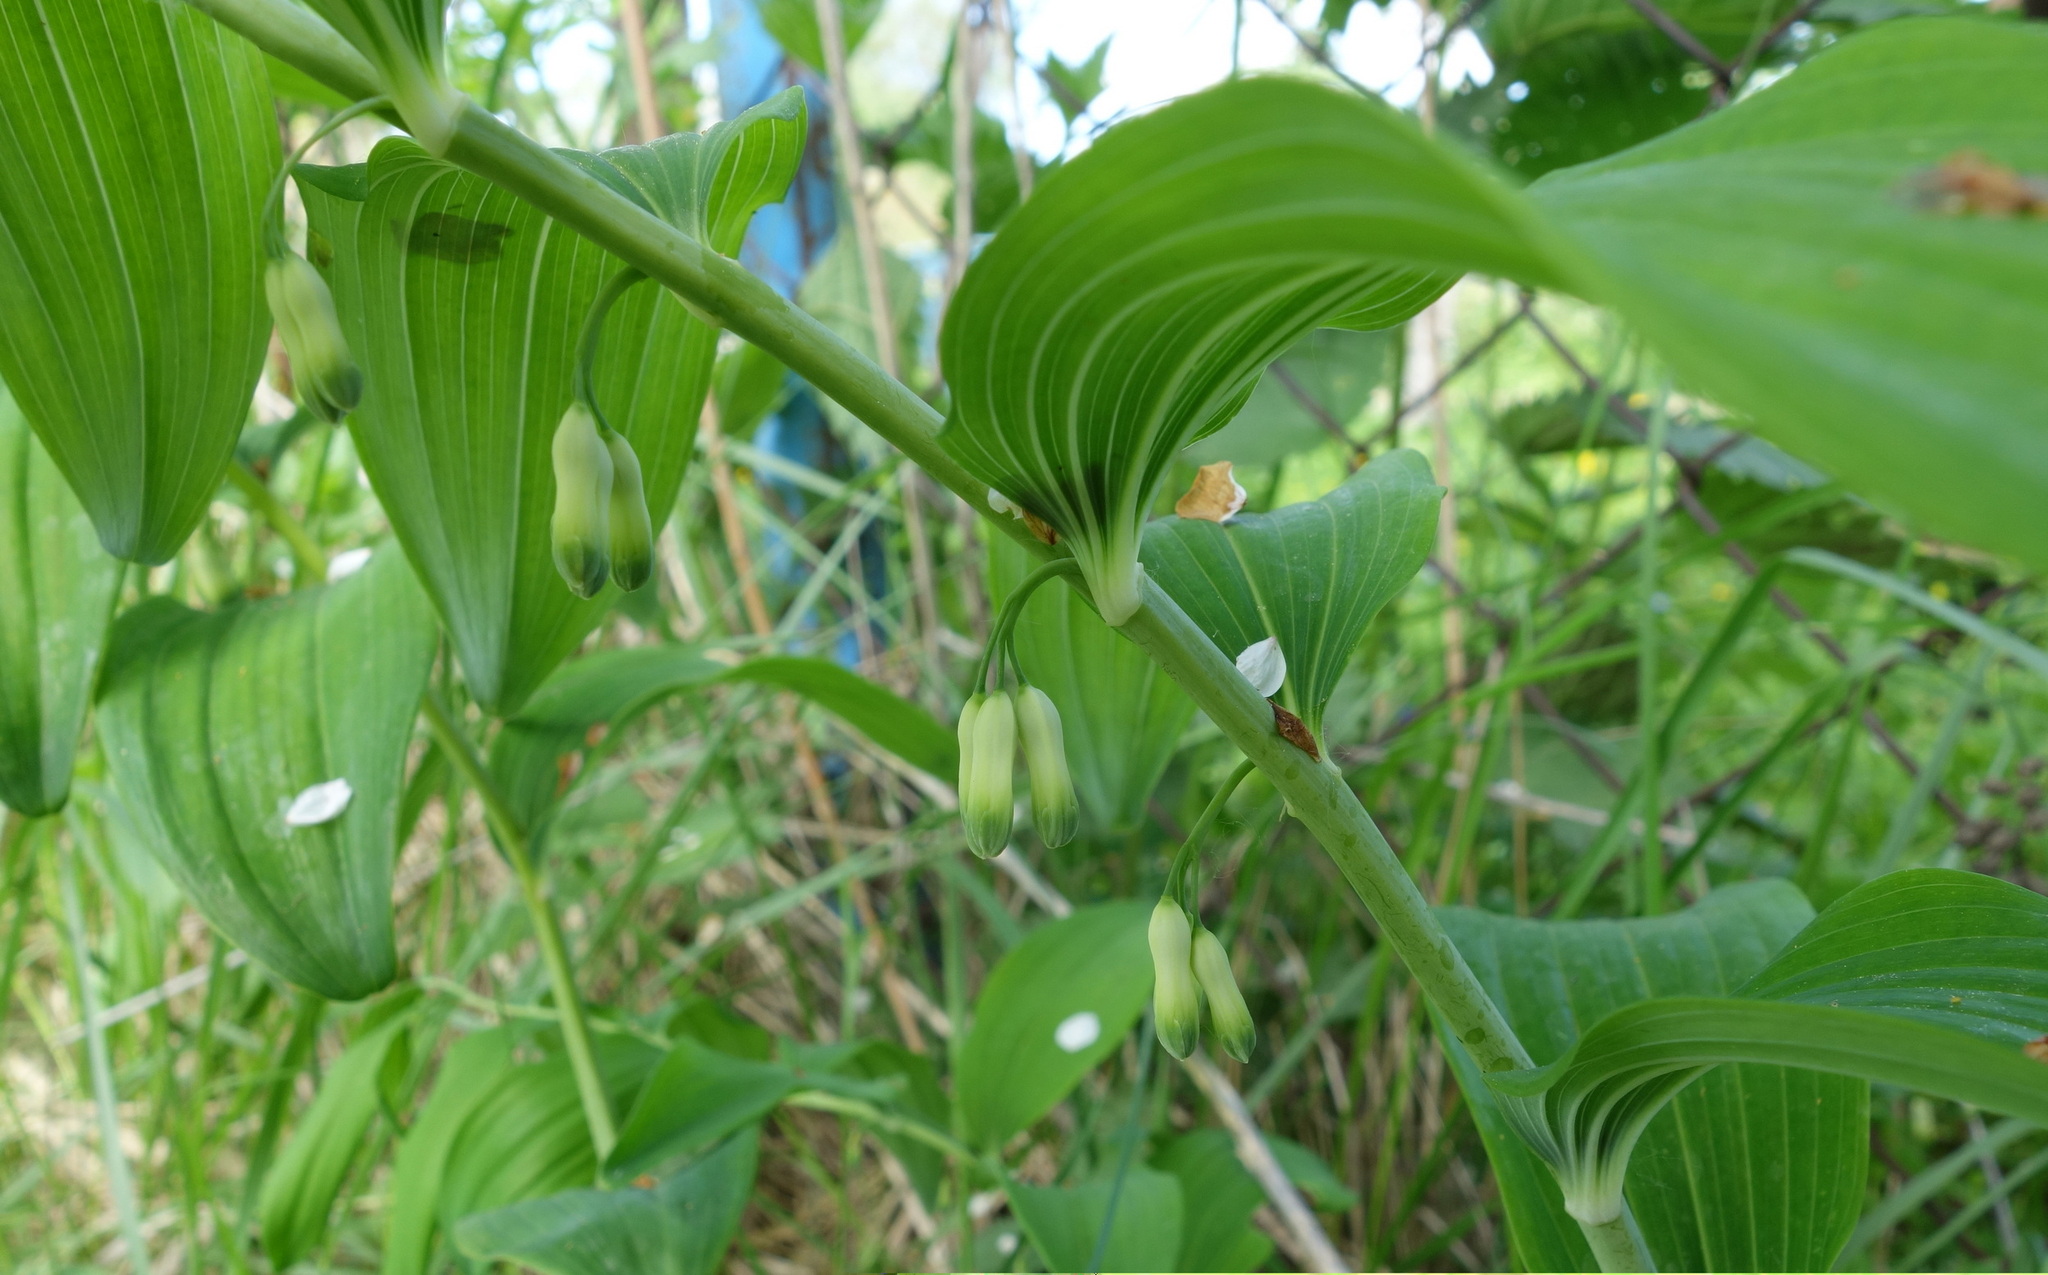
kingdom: Plantae
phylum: Tracheophyta
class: Liliopsida
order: Asparagales
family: Asparagaceae
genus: Polygonatum
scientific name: Polygonatum multiflorum
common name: Solomon's-seal
